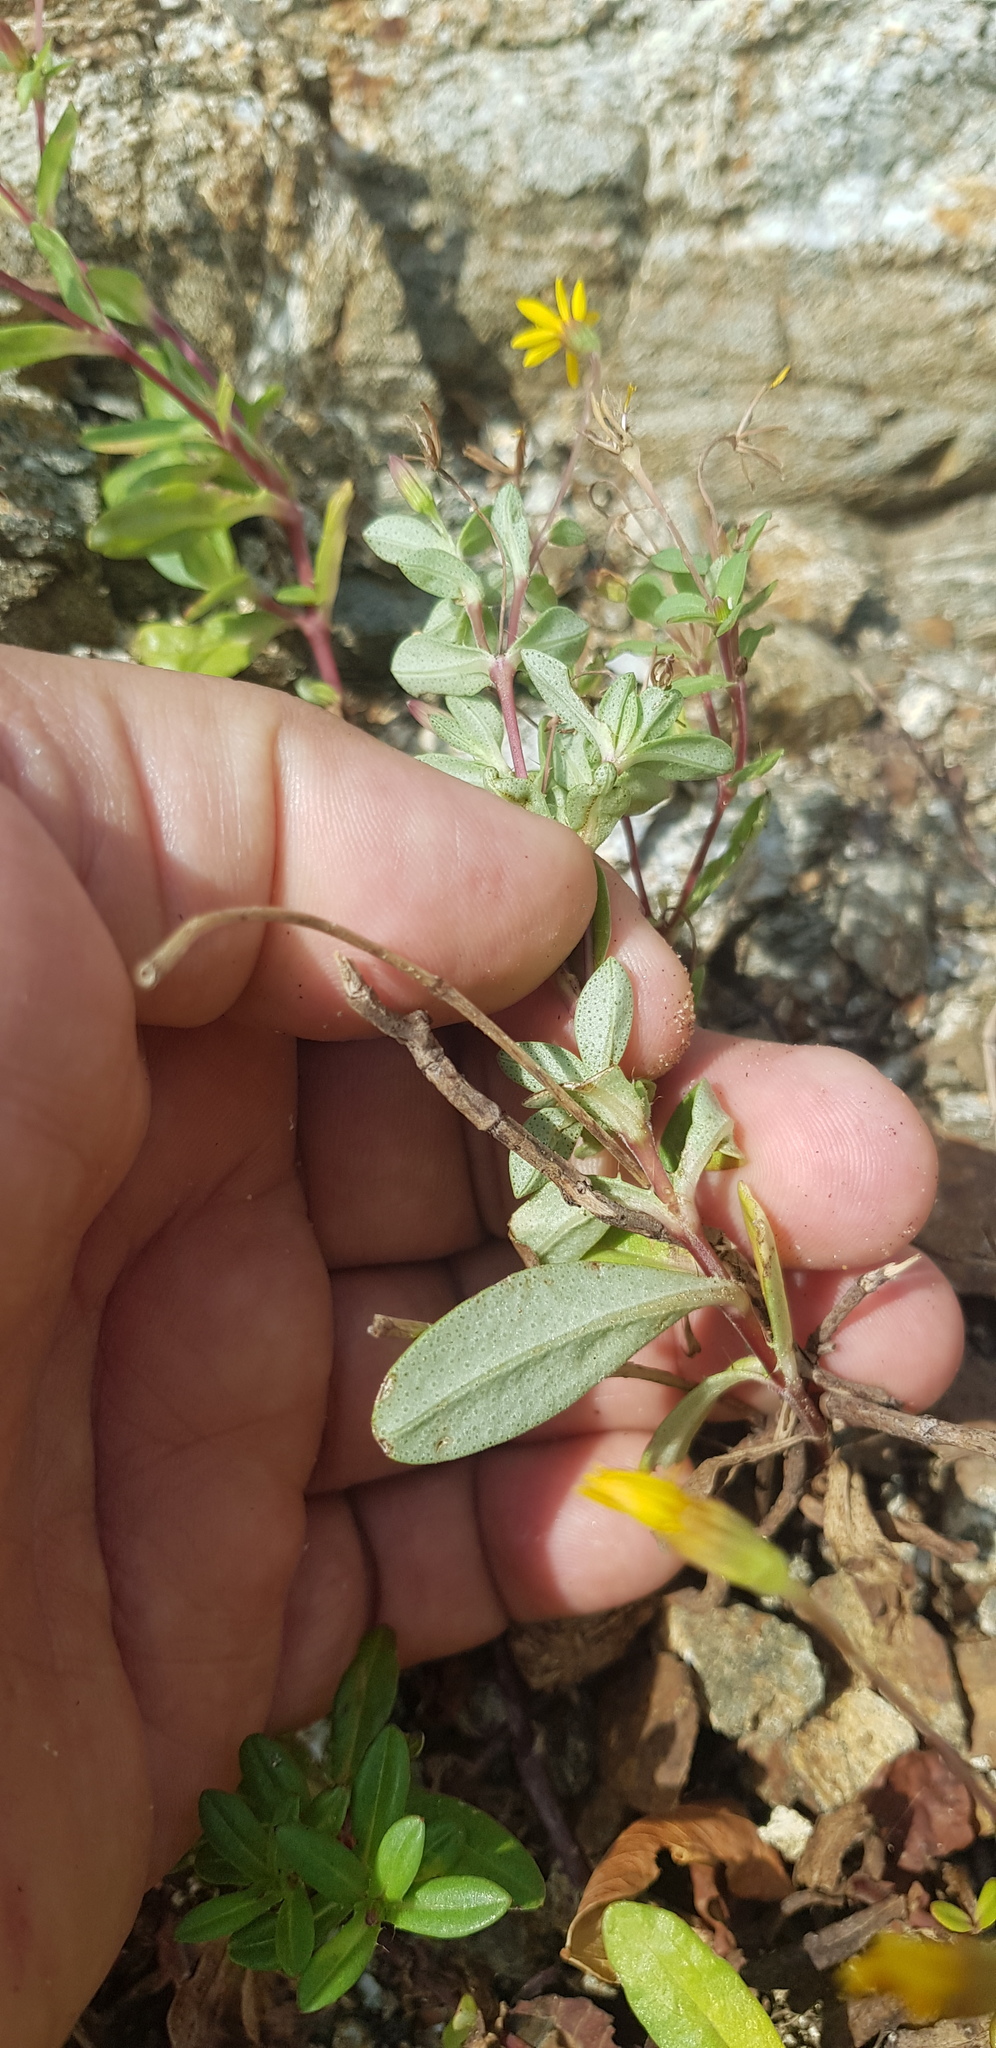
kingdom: Plantae
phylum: Tracheophyta
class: Magnoliopsida
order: Asterales
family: Asteraceae
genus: Pectis
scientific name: Pectis multiflosculosa
